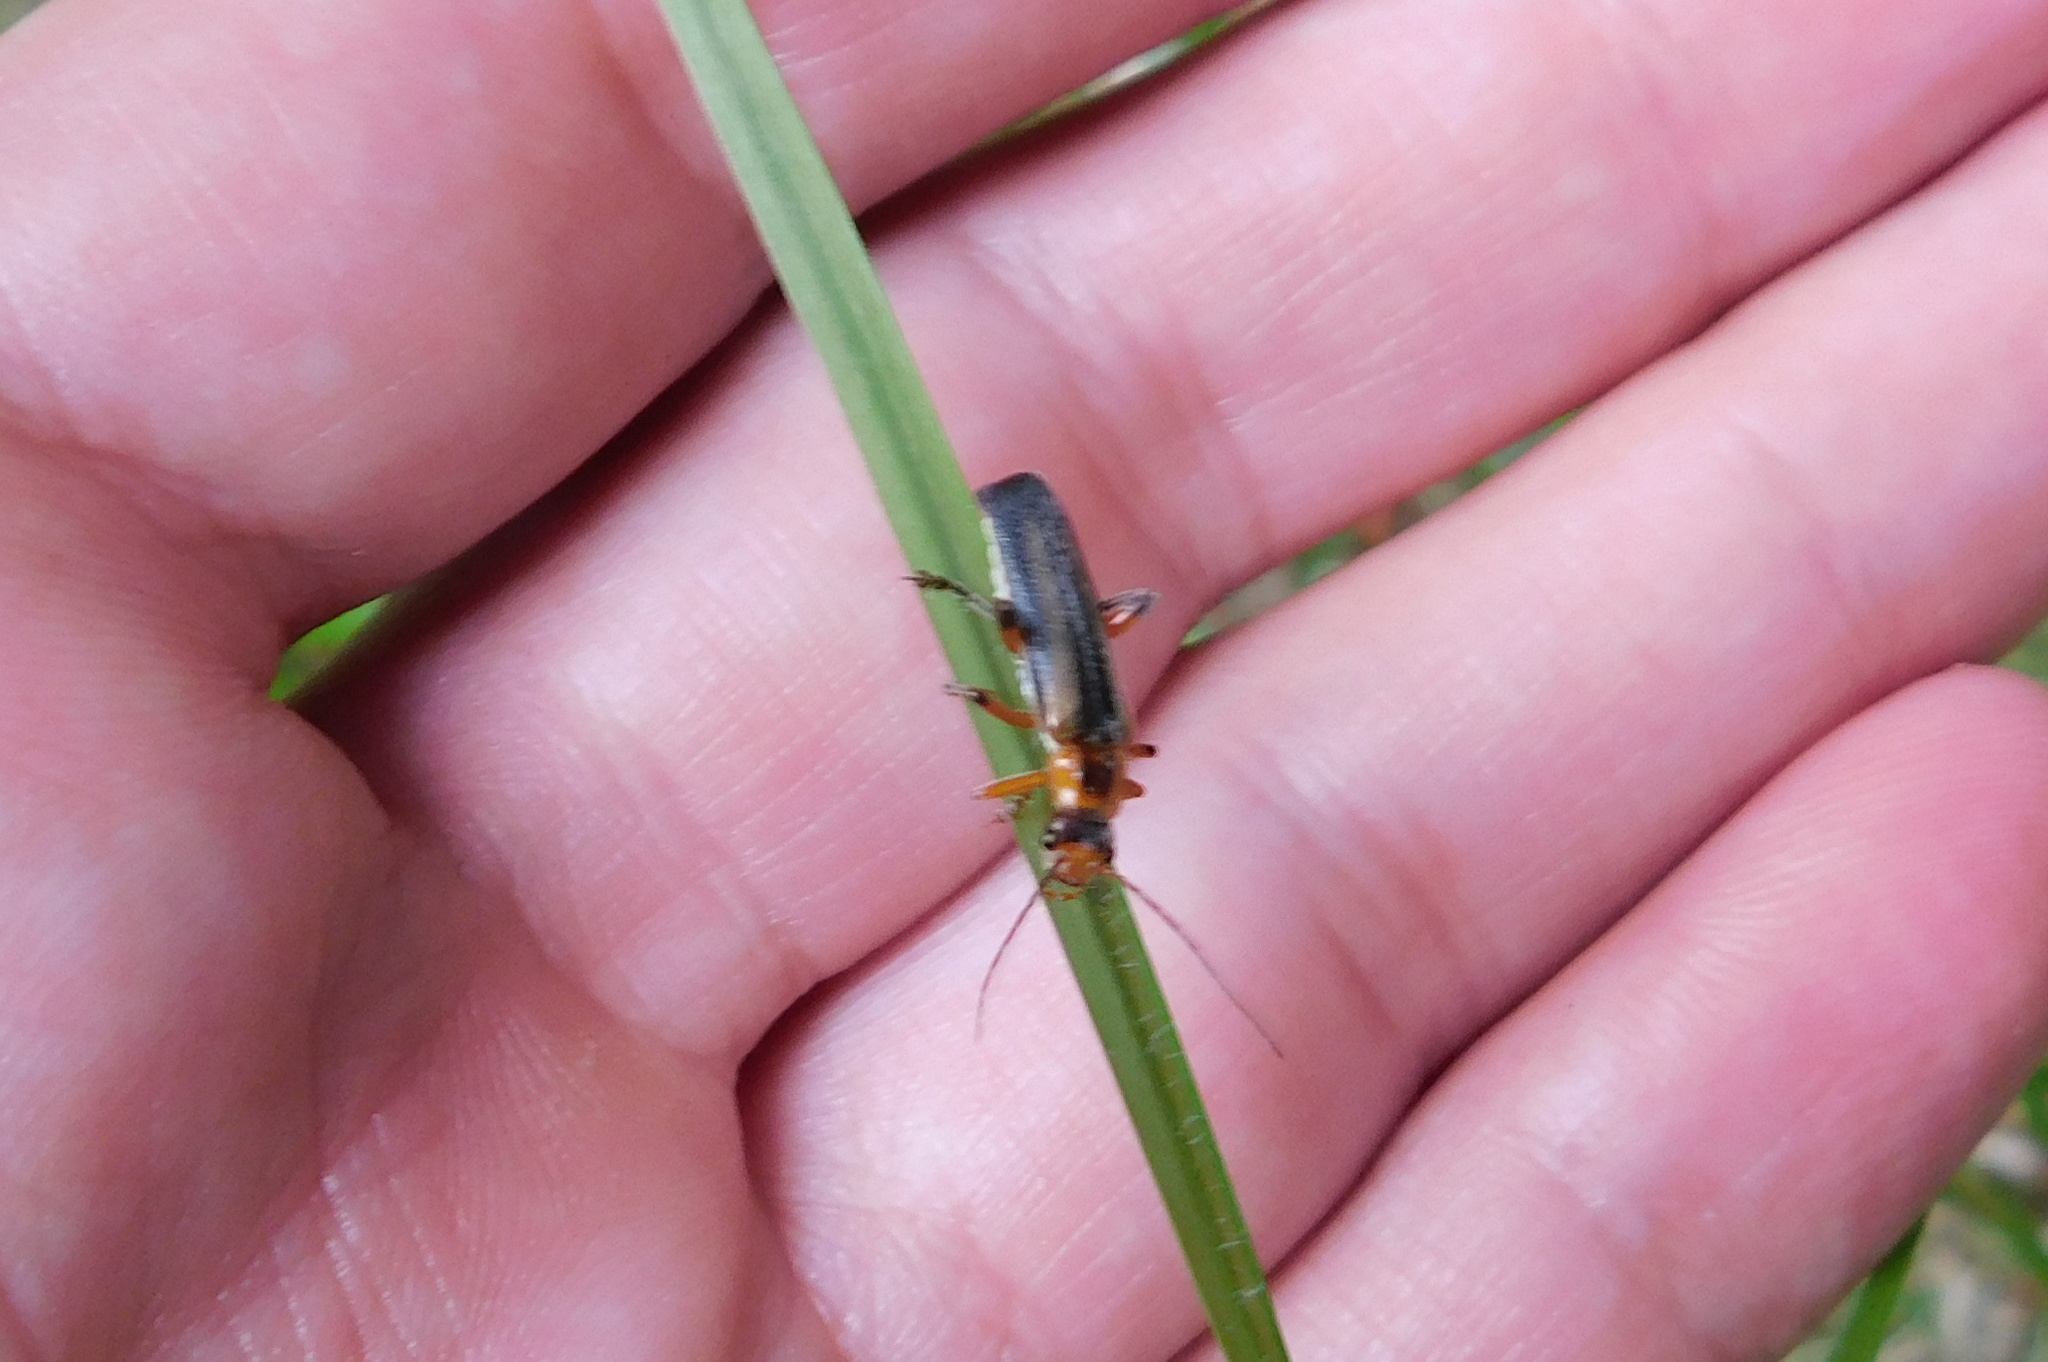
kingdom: Animalia
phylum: Arthropoda
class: Insecta
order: Coleoptera
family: Cantharidae
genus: Metacantharis
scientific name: Metacantharis discoidea
